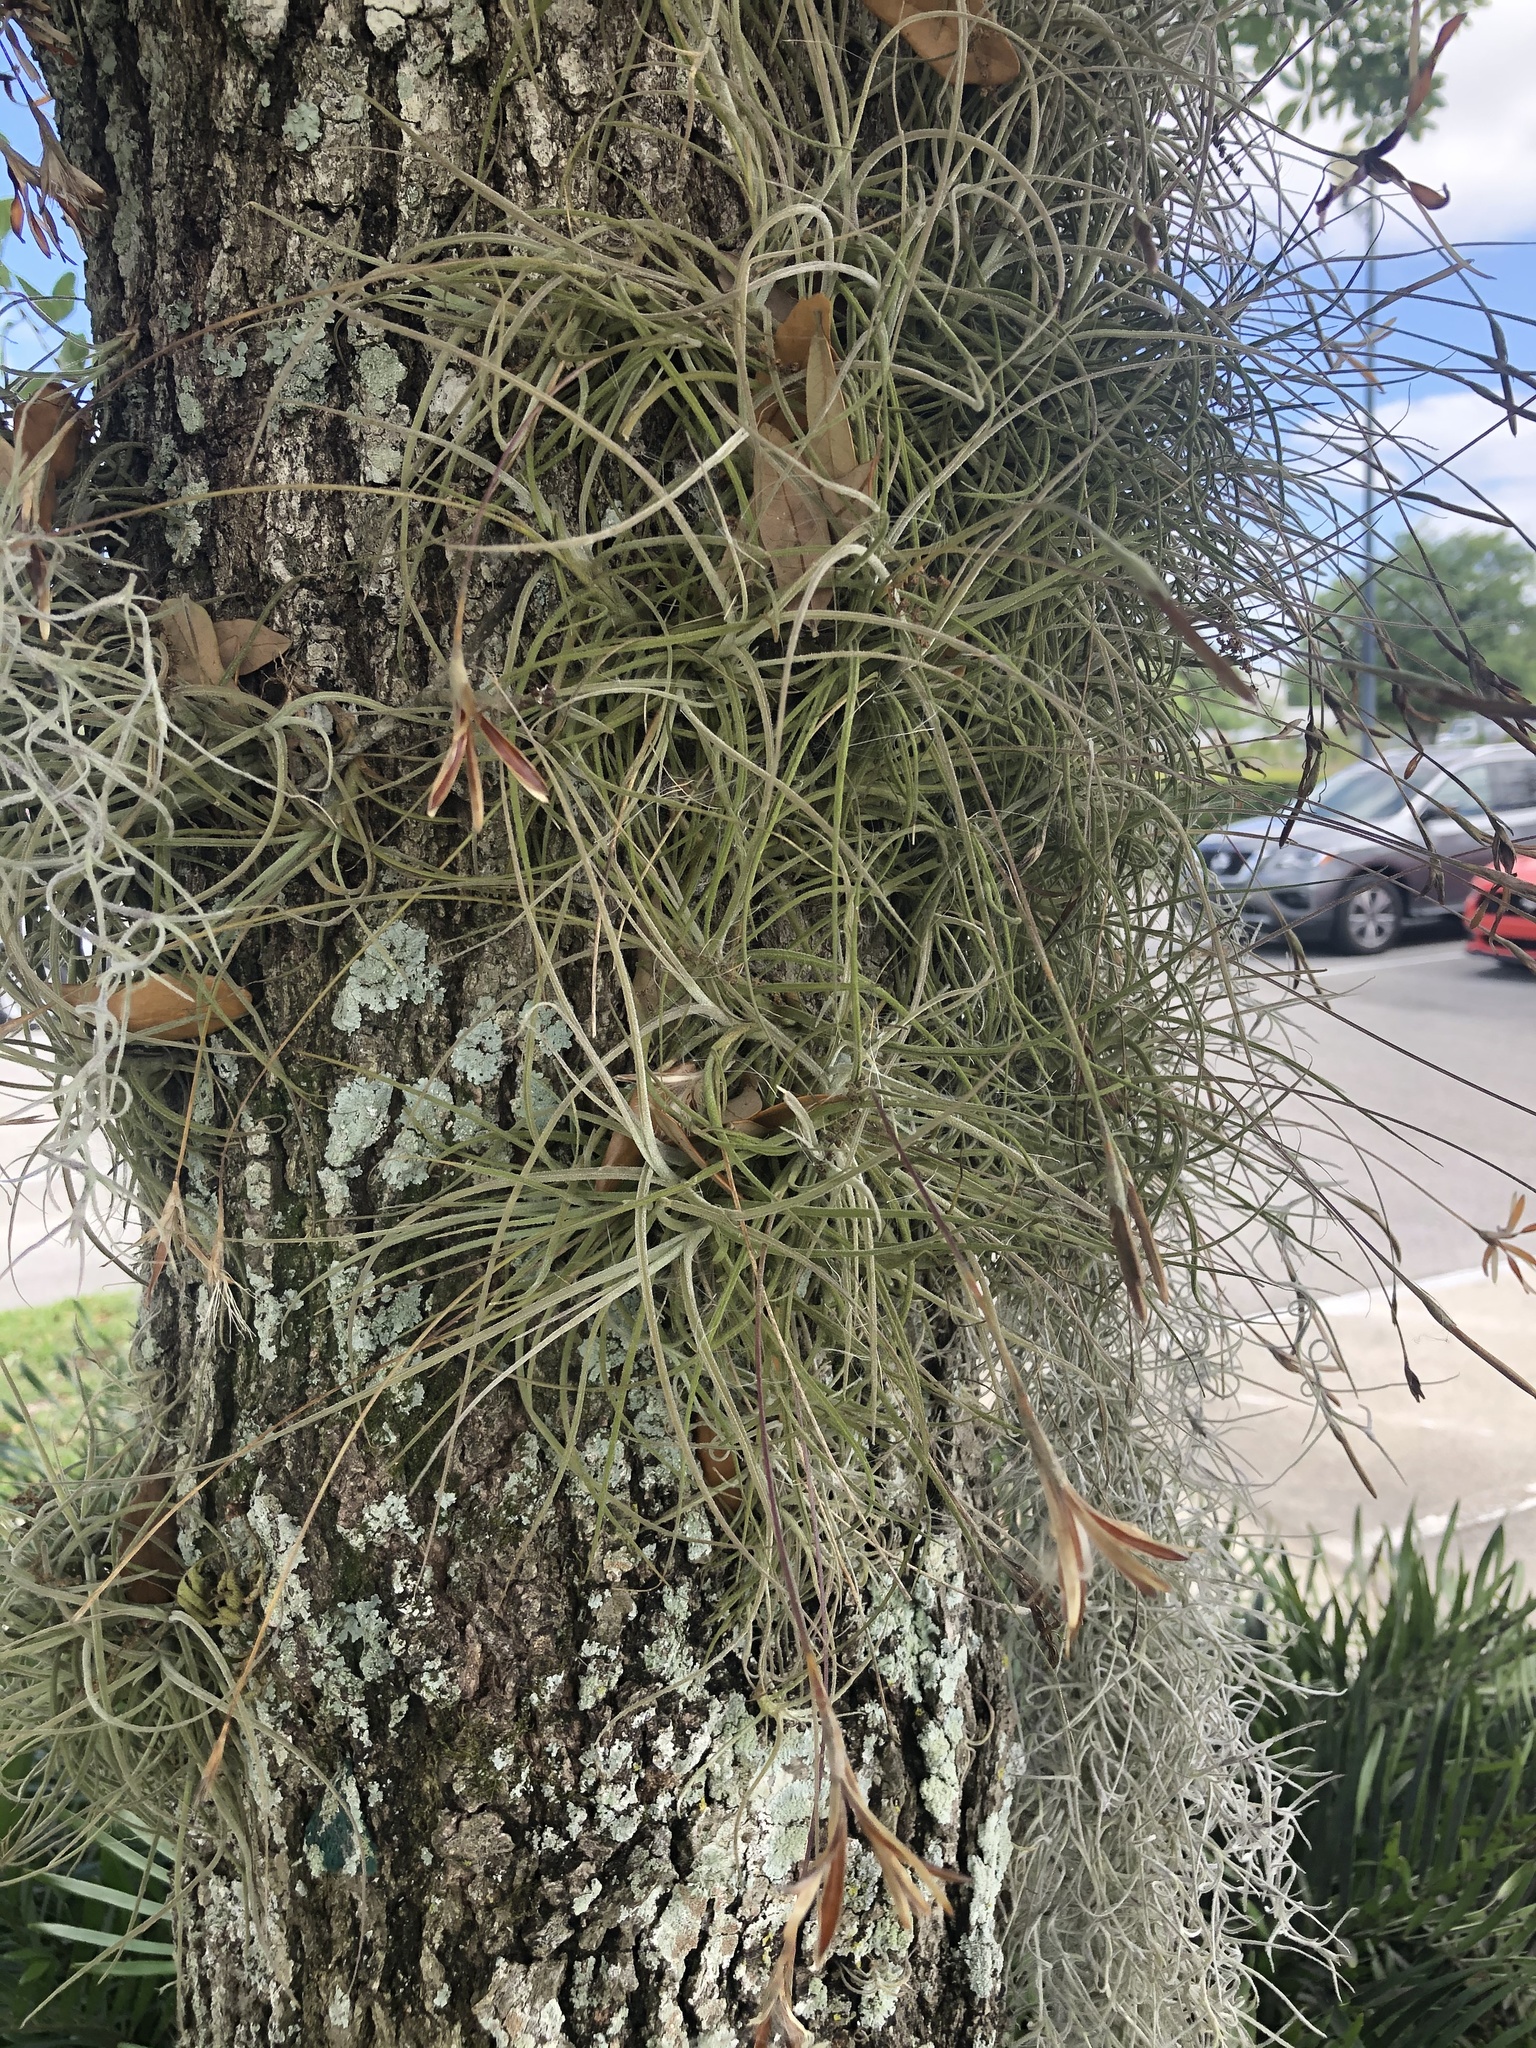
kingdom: Plantae
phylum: Tracheophyta
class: Liliopsida
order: Poales
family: Bromeliaceae
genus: Tillandsia
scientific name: Tillandsia recurvata
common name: Small ballmoss
